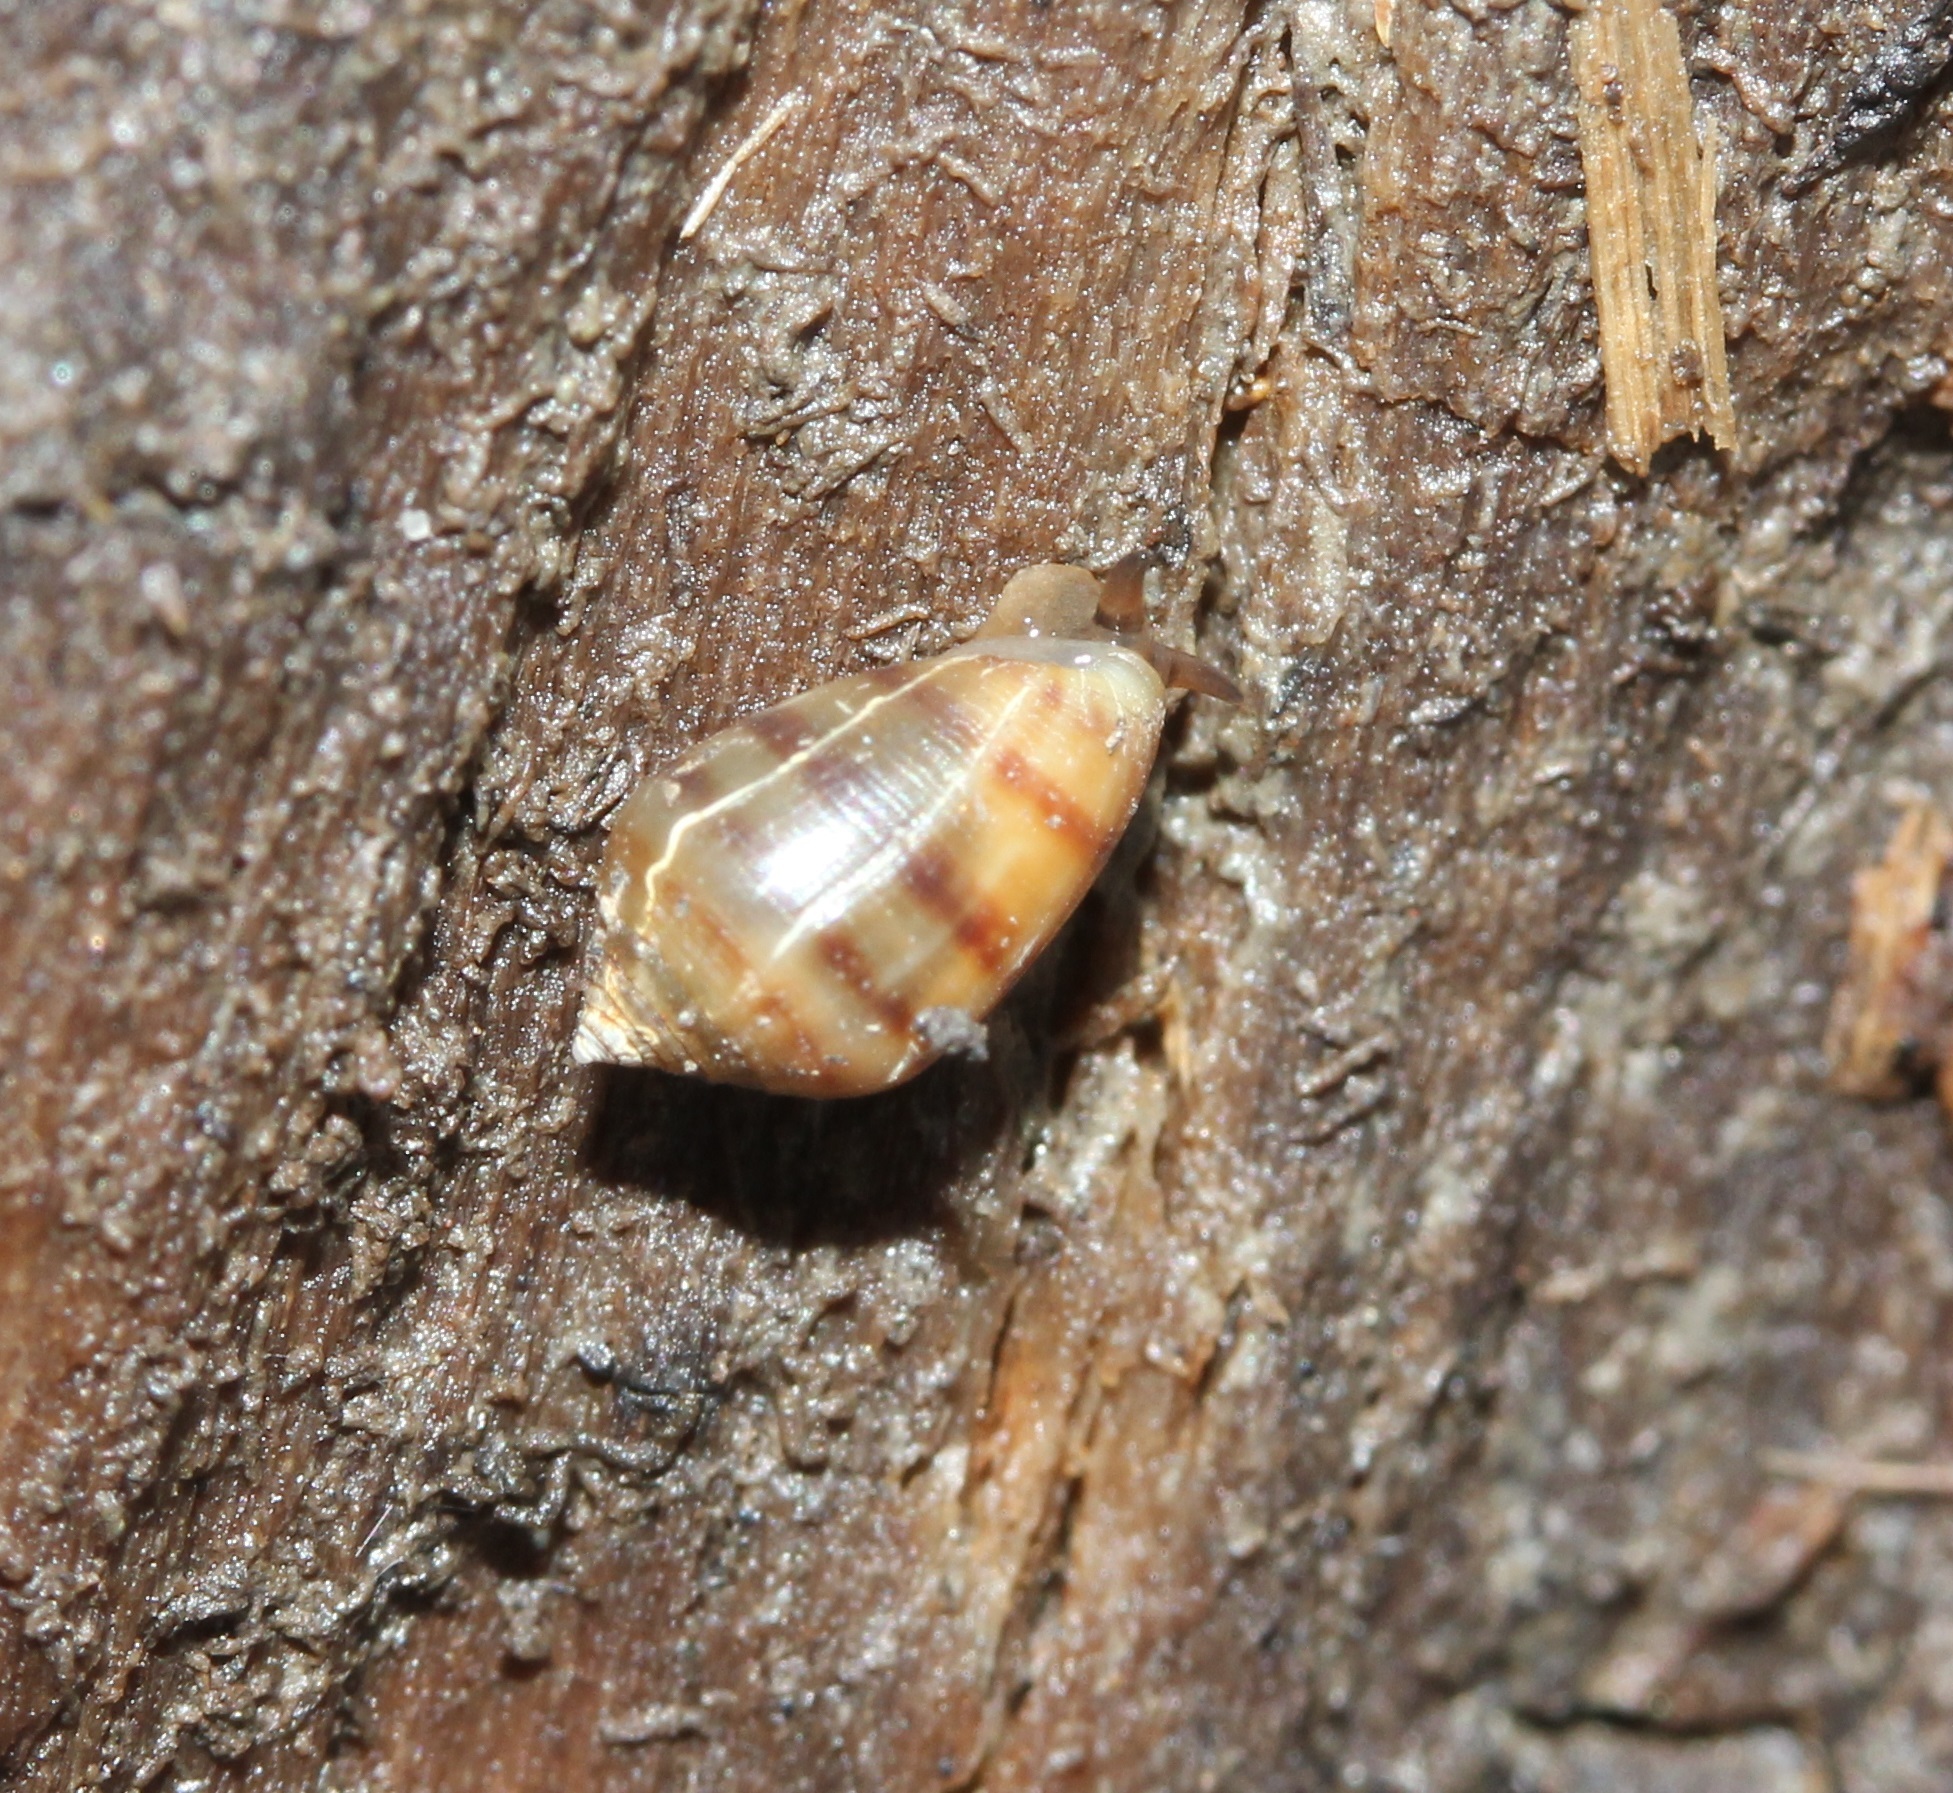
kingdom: Animalia
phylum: Mollusca
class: Gastropoda
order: Ellobiida
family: Ellobiidae
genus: Melampus
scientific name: Melampus bidentatus
